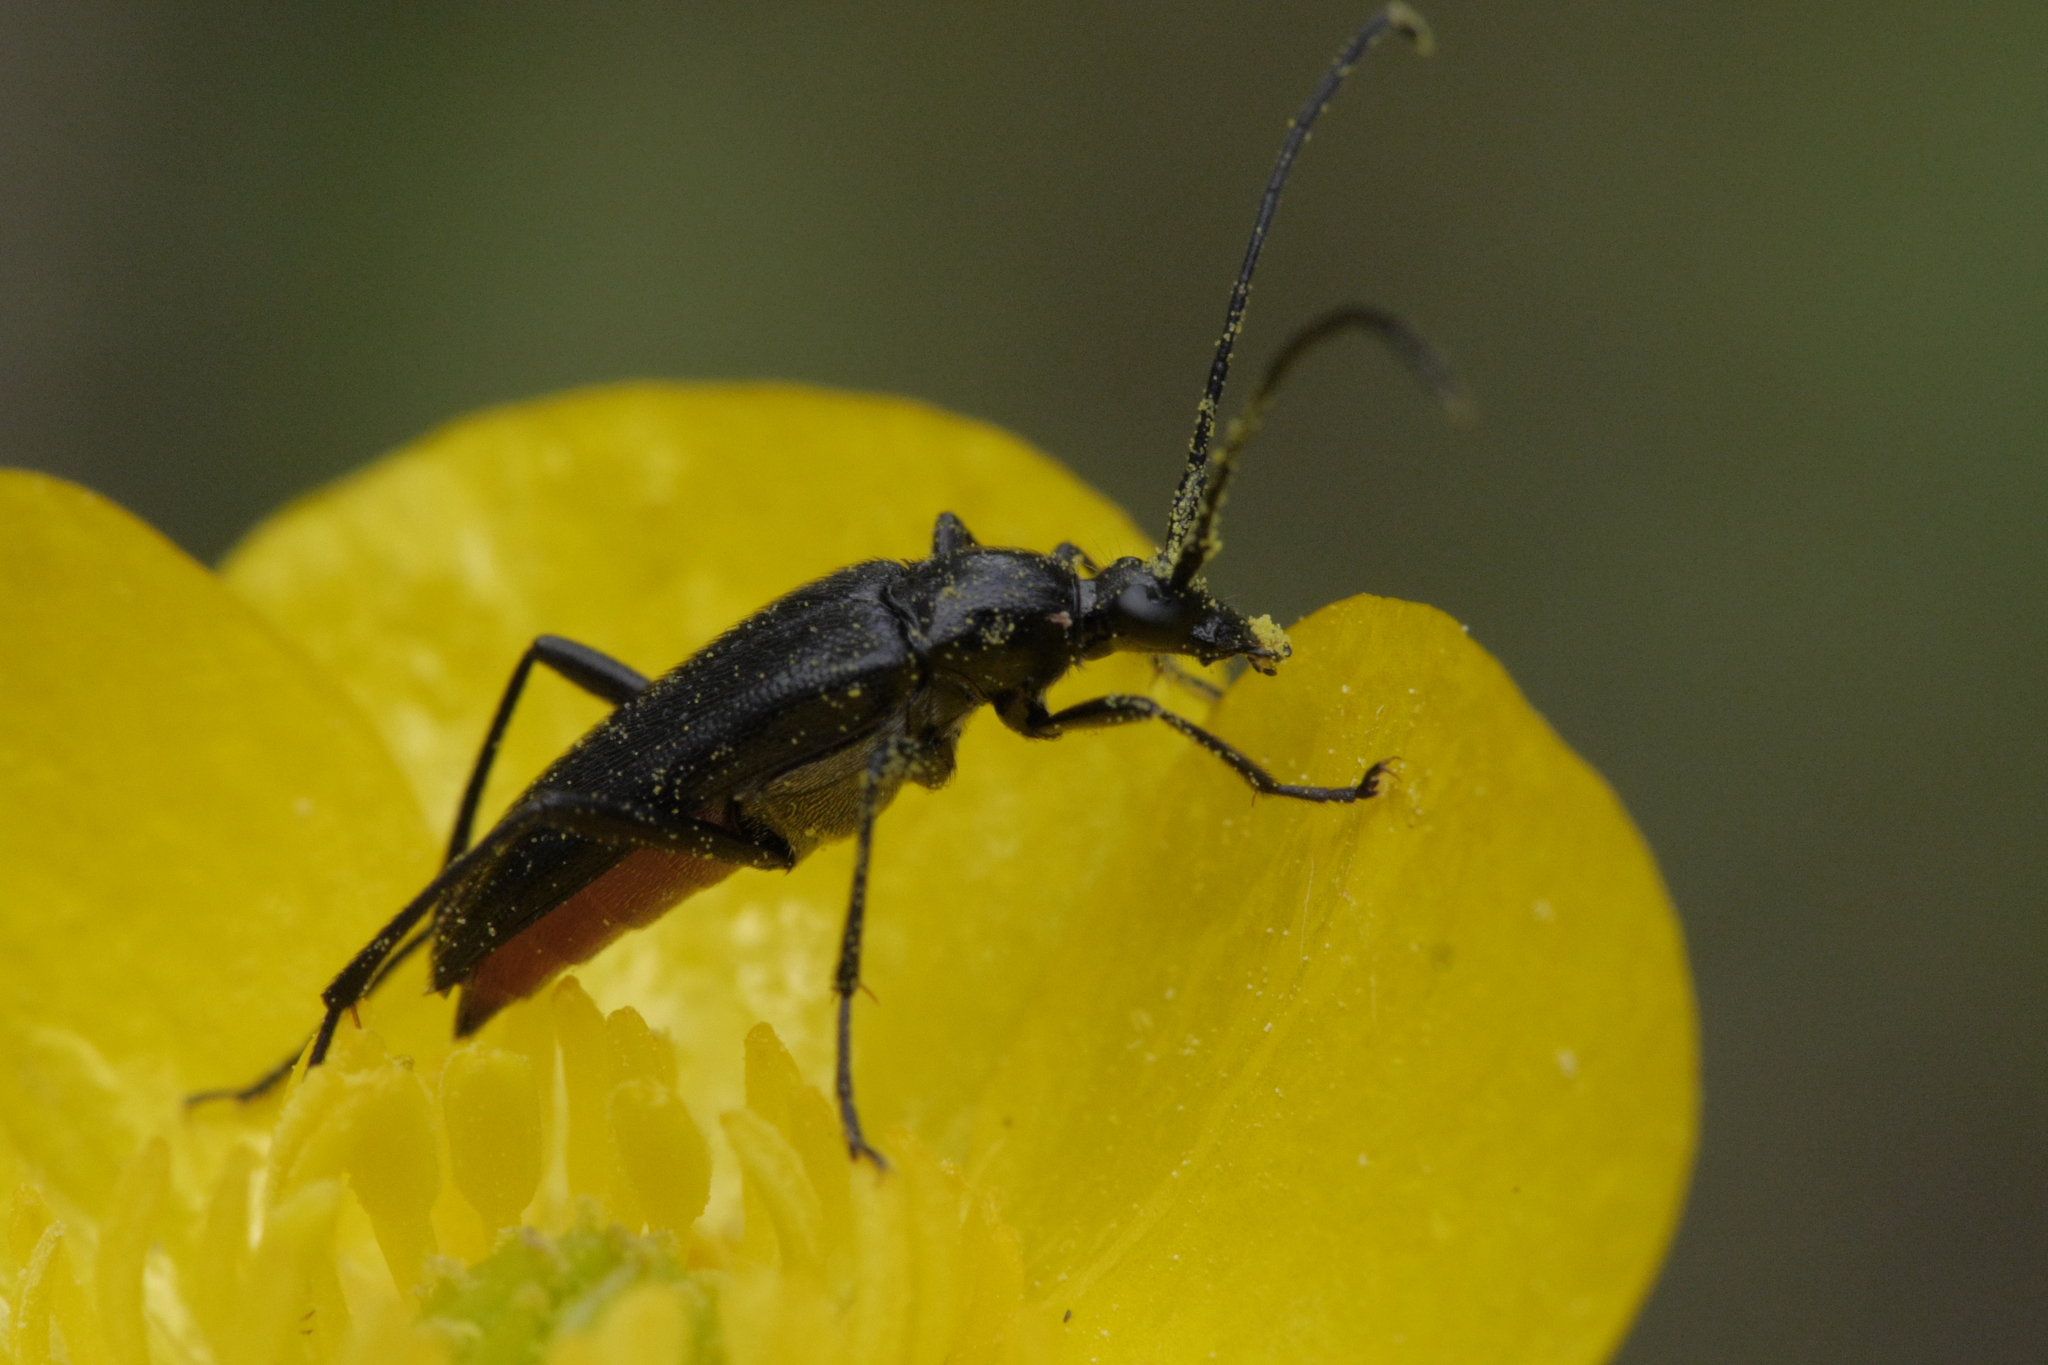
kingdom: Animalia
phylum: Arthropoda
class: Insecta
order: Coleoptera
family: Cerambycidae
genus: Stenurella
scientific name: Stenurella nigra
